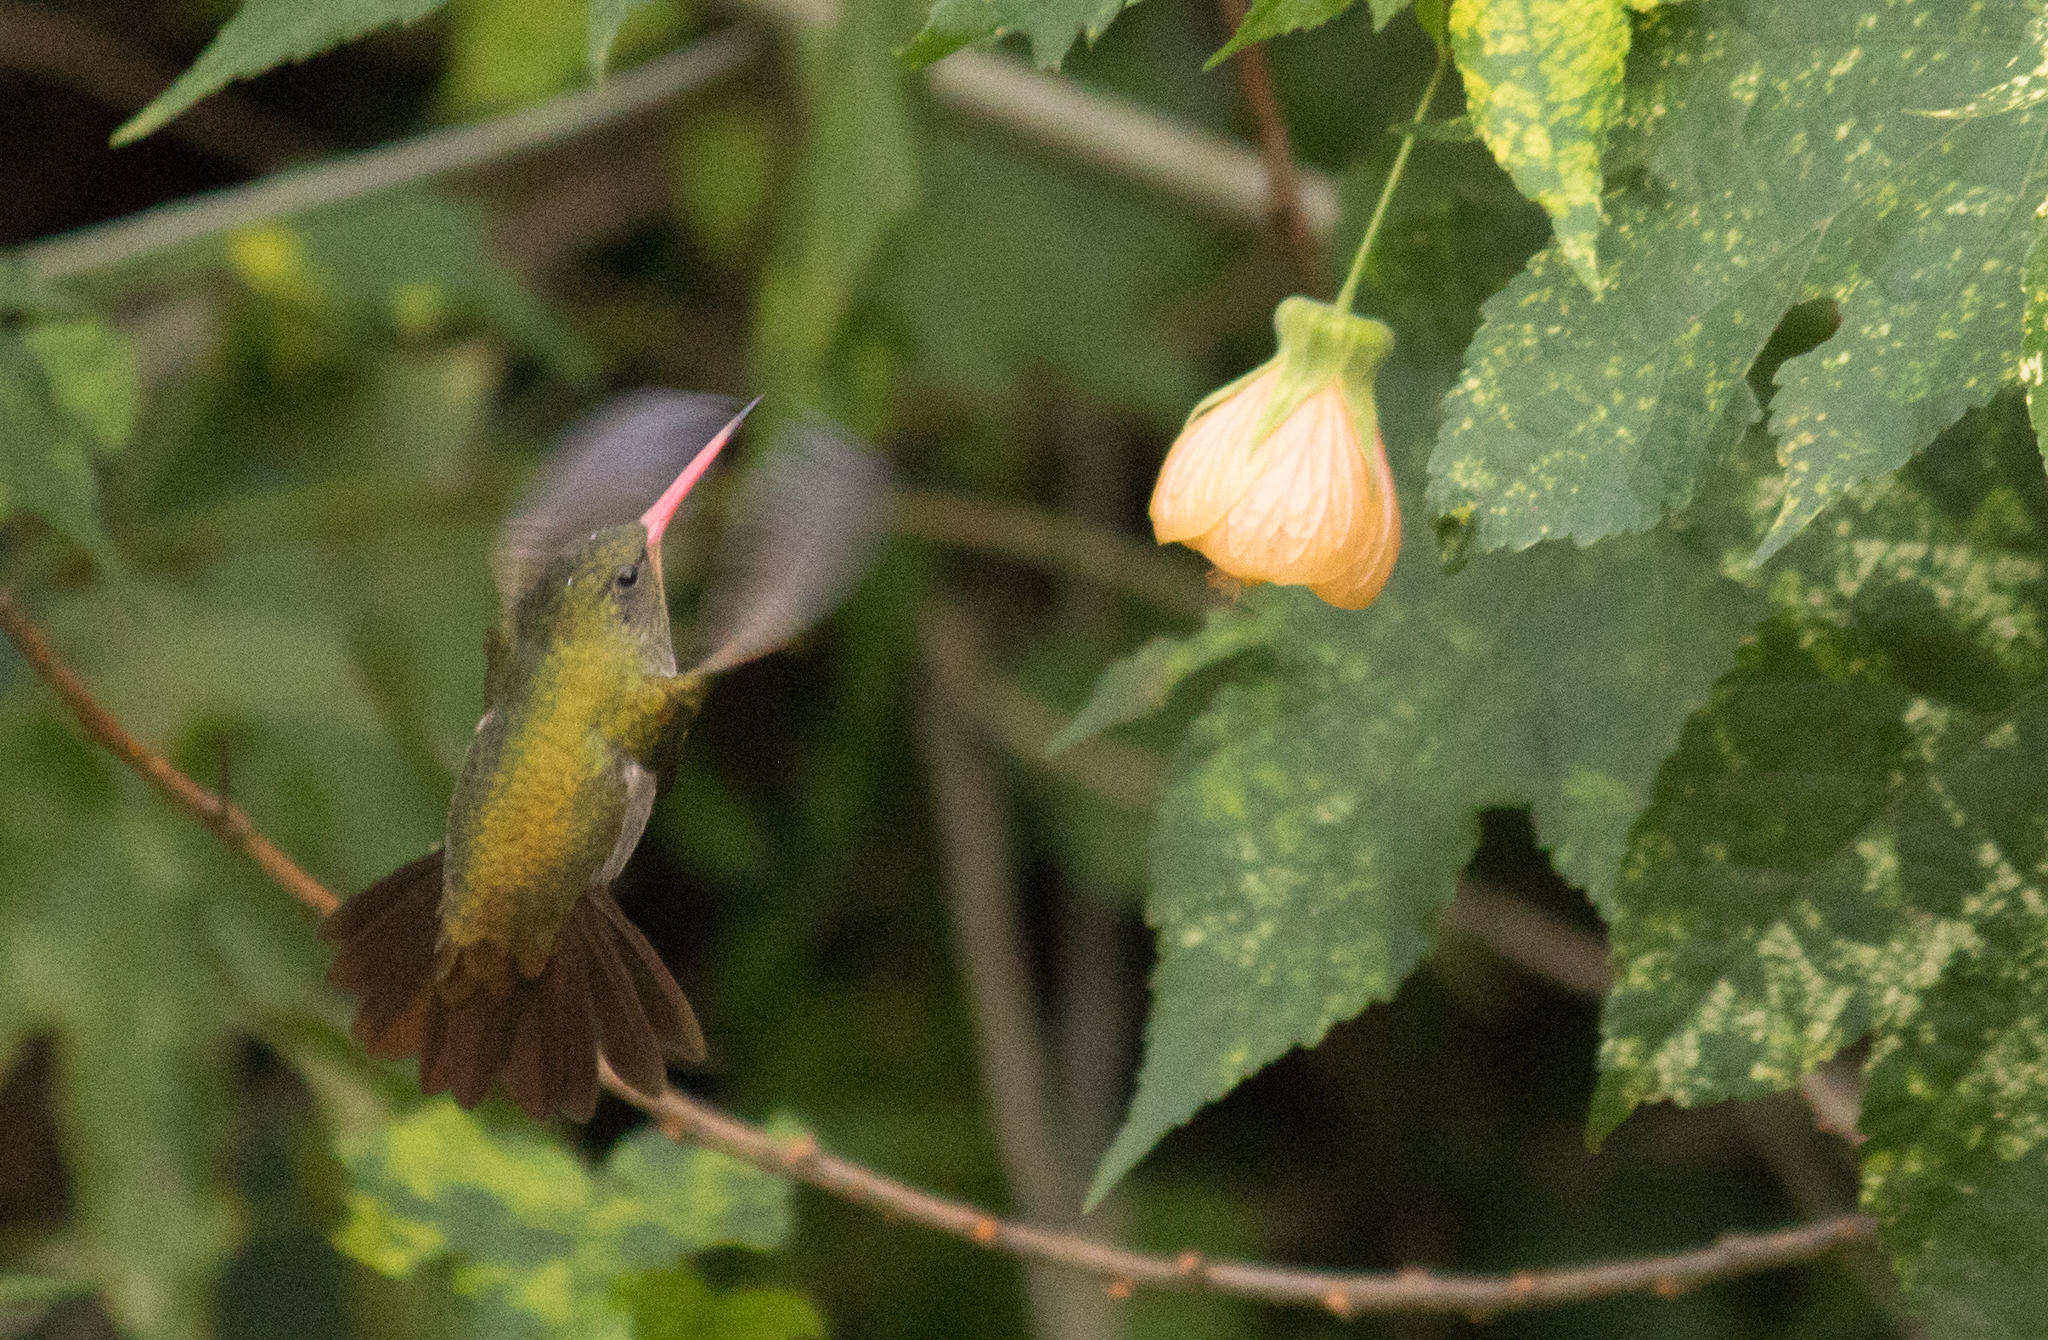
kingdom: Animalia
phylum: Chordata
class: Aves
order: Apodiformes
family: Trochilidae
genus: Hylocharis
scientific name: Hylocharis chrysura
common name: Gilded sapphire
